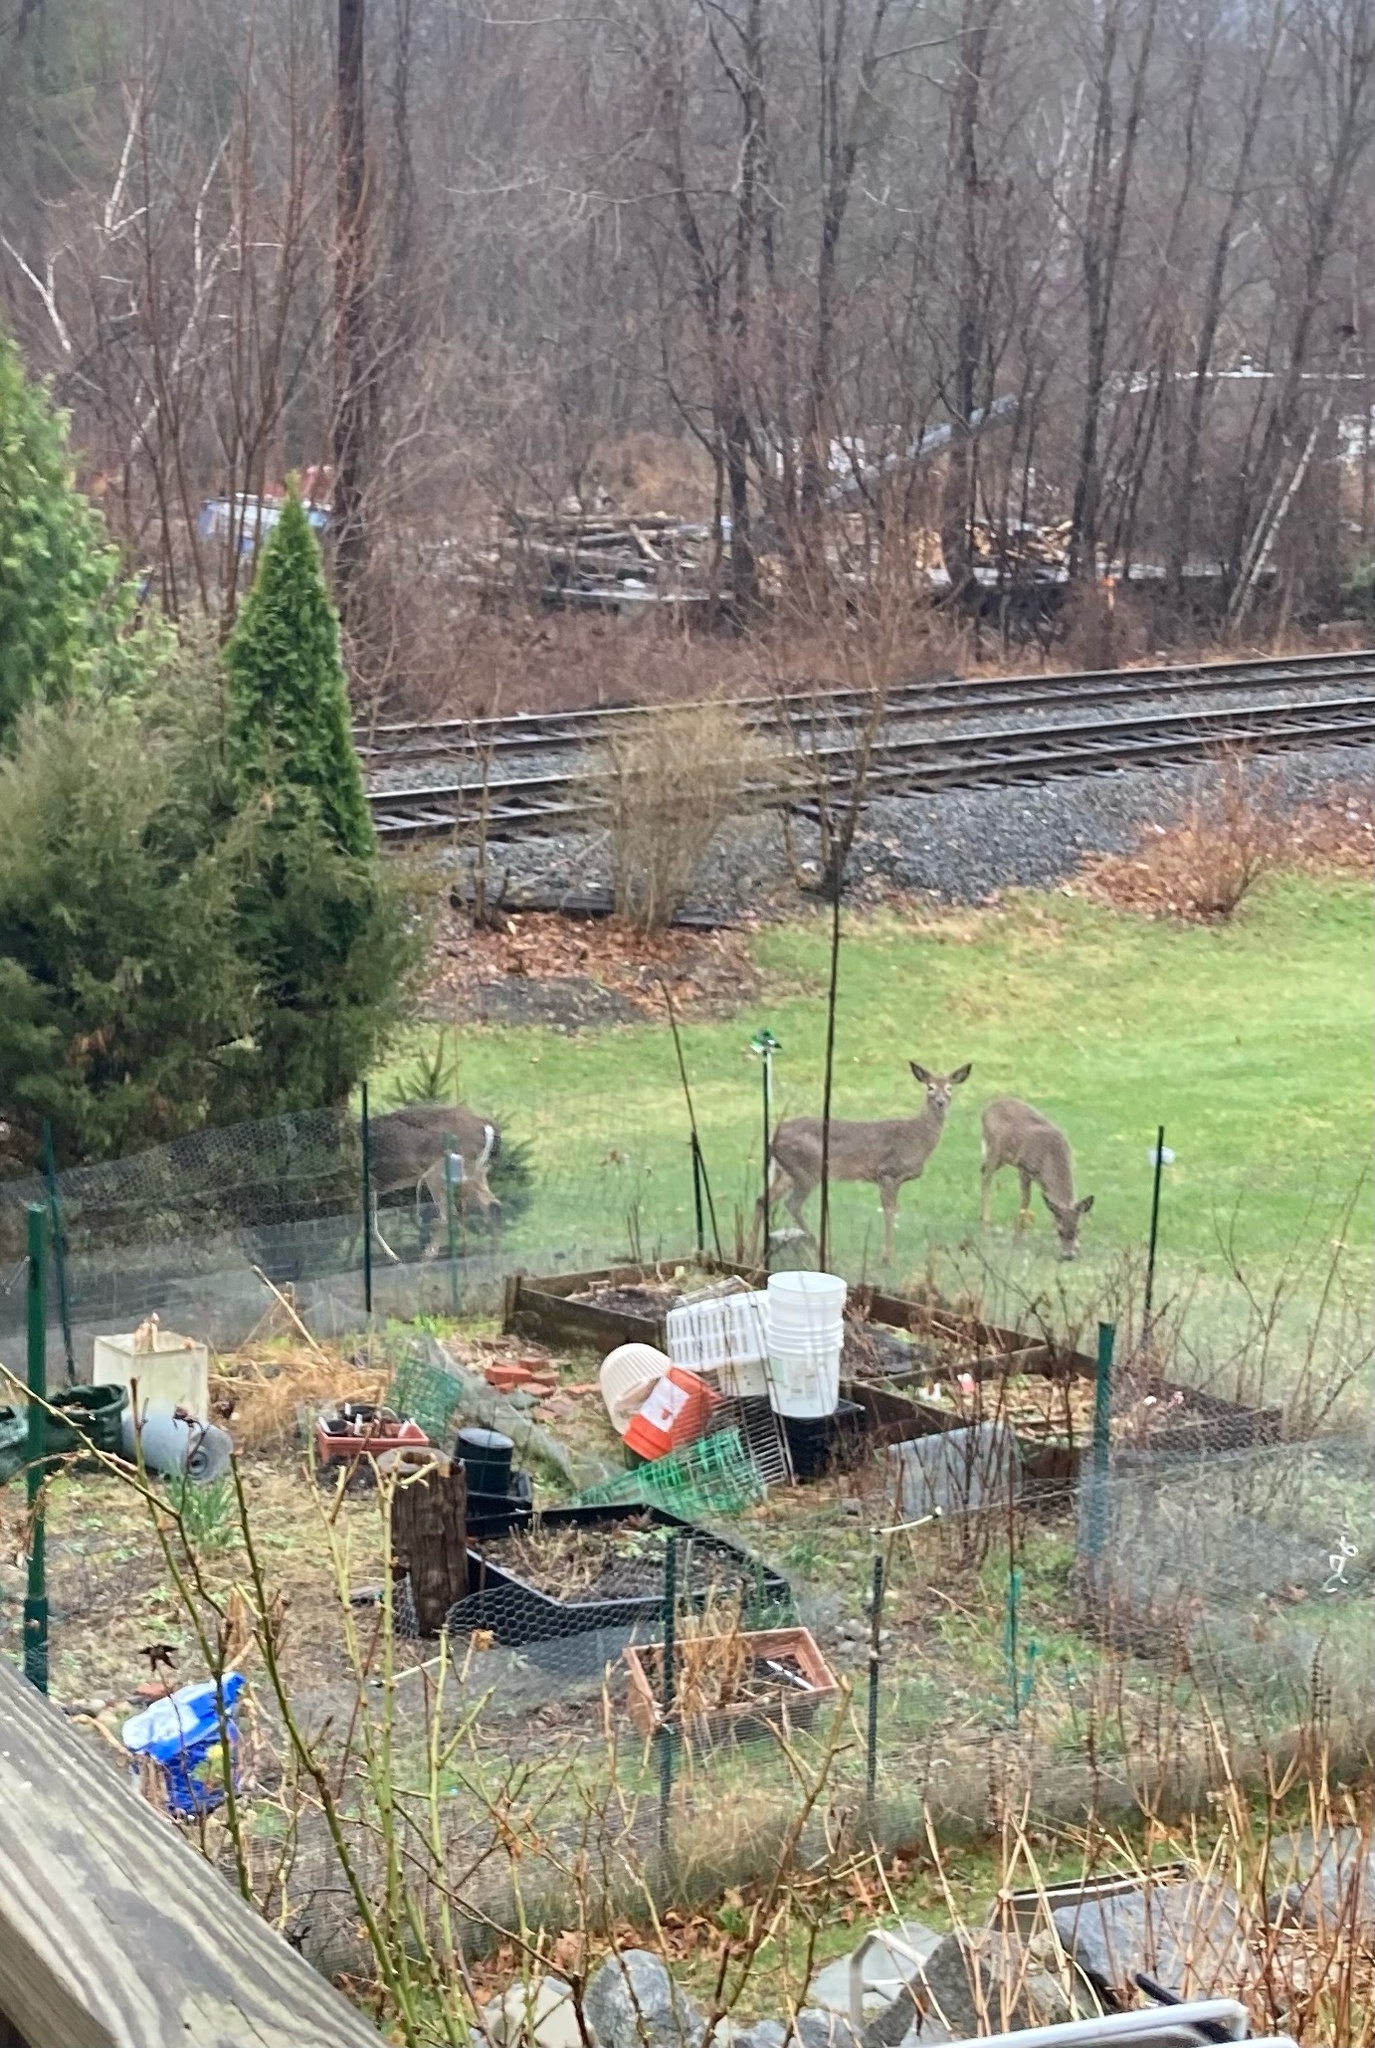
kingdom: Animalia
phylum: Chordata
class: Mammalia
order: Artiodactyla
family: Cervidae
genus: Odocoileus
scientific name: Odocoileus virginianus
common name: White-tailed deer
